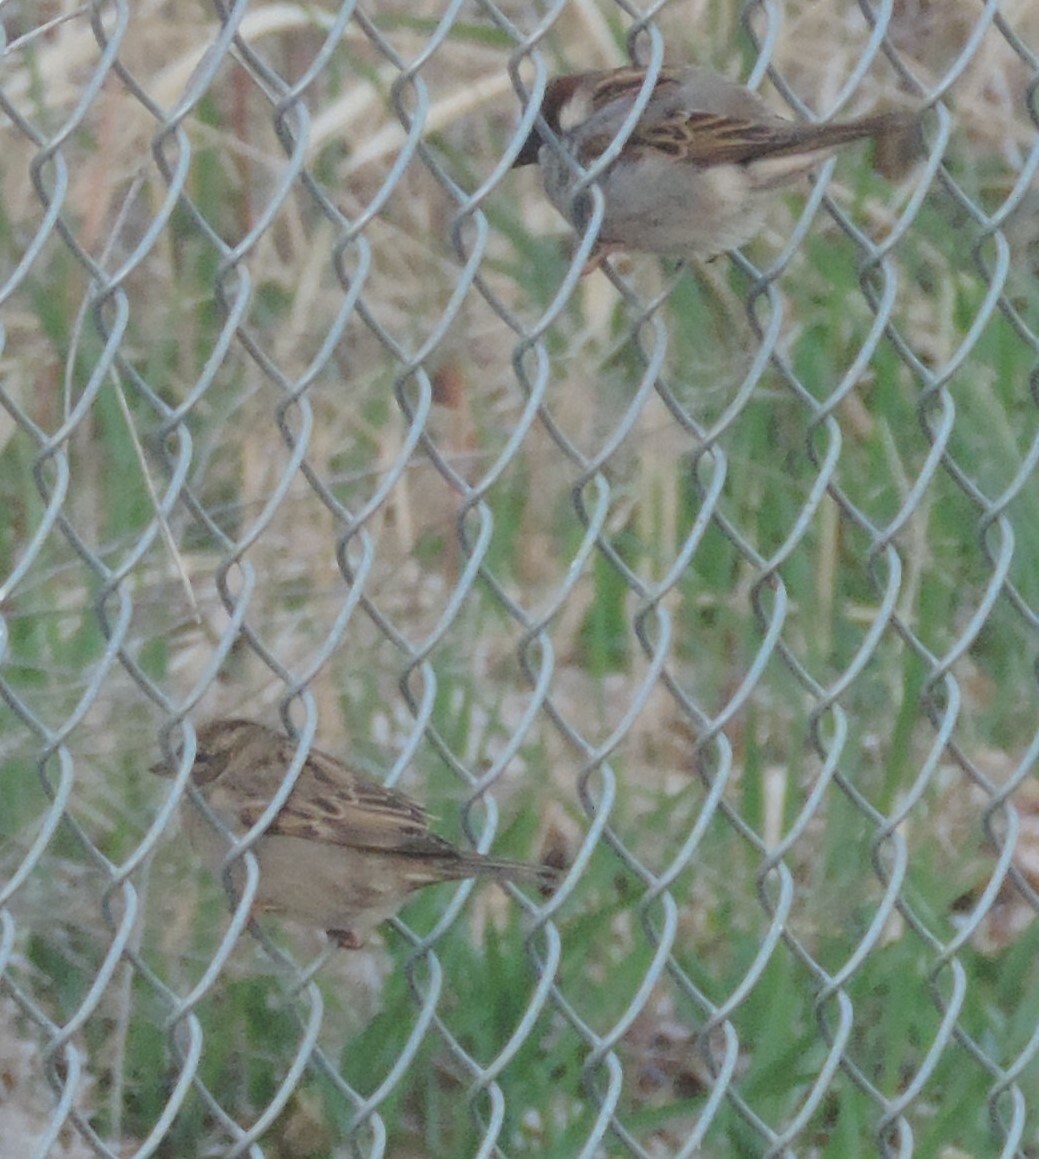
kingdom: Animalia
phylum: Chordata
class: Aves
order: Passeriformes
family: Passeridae
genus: Passer
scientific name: Passer domesticus
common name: House sparrow
